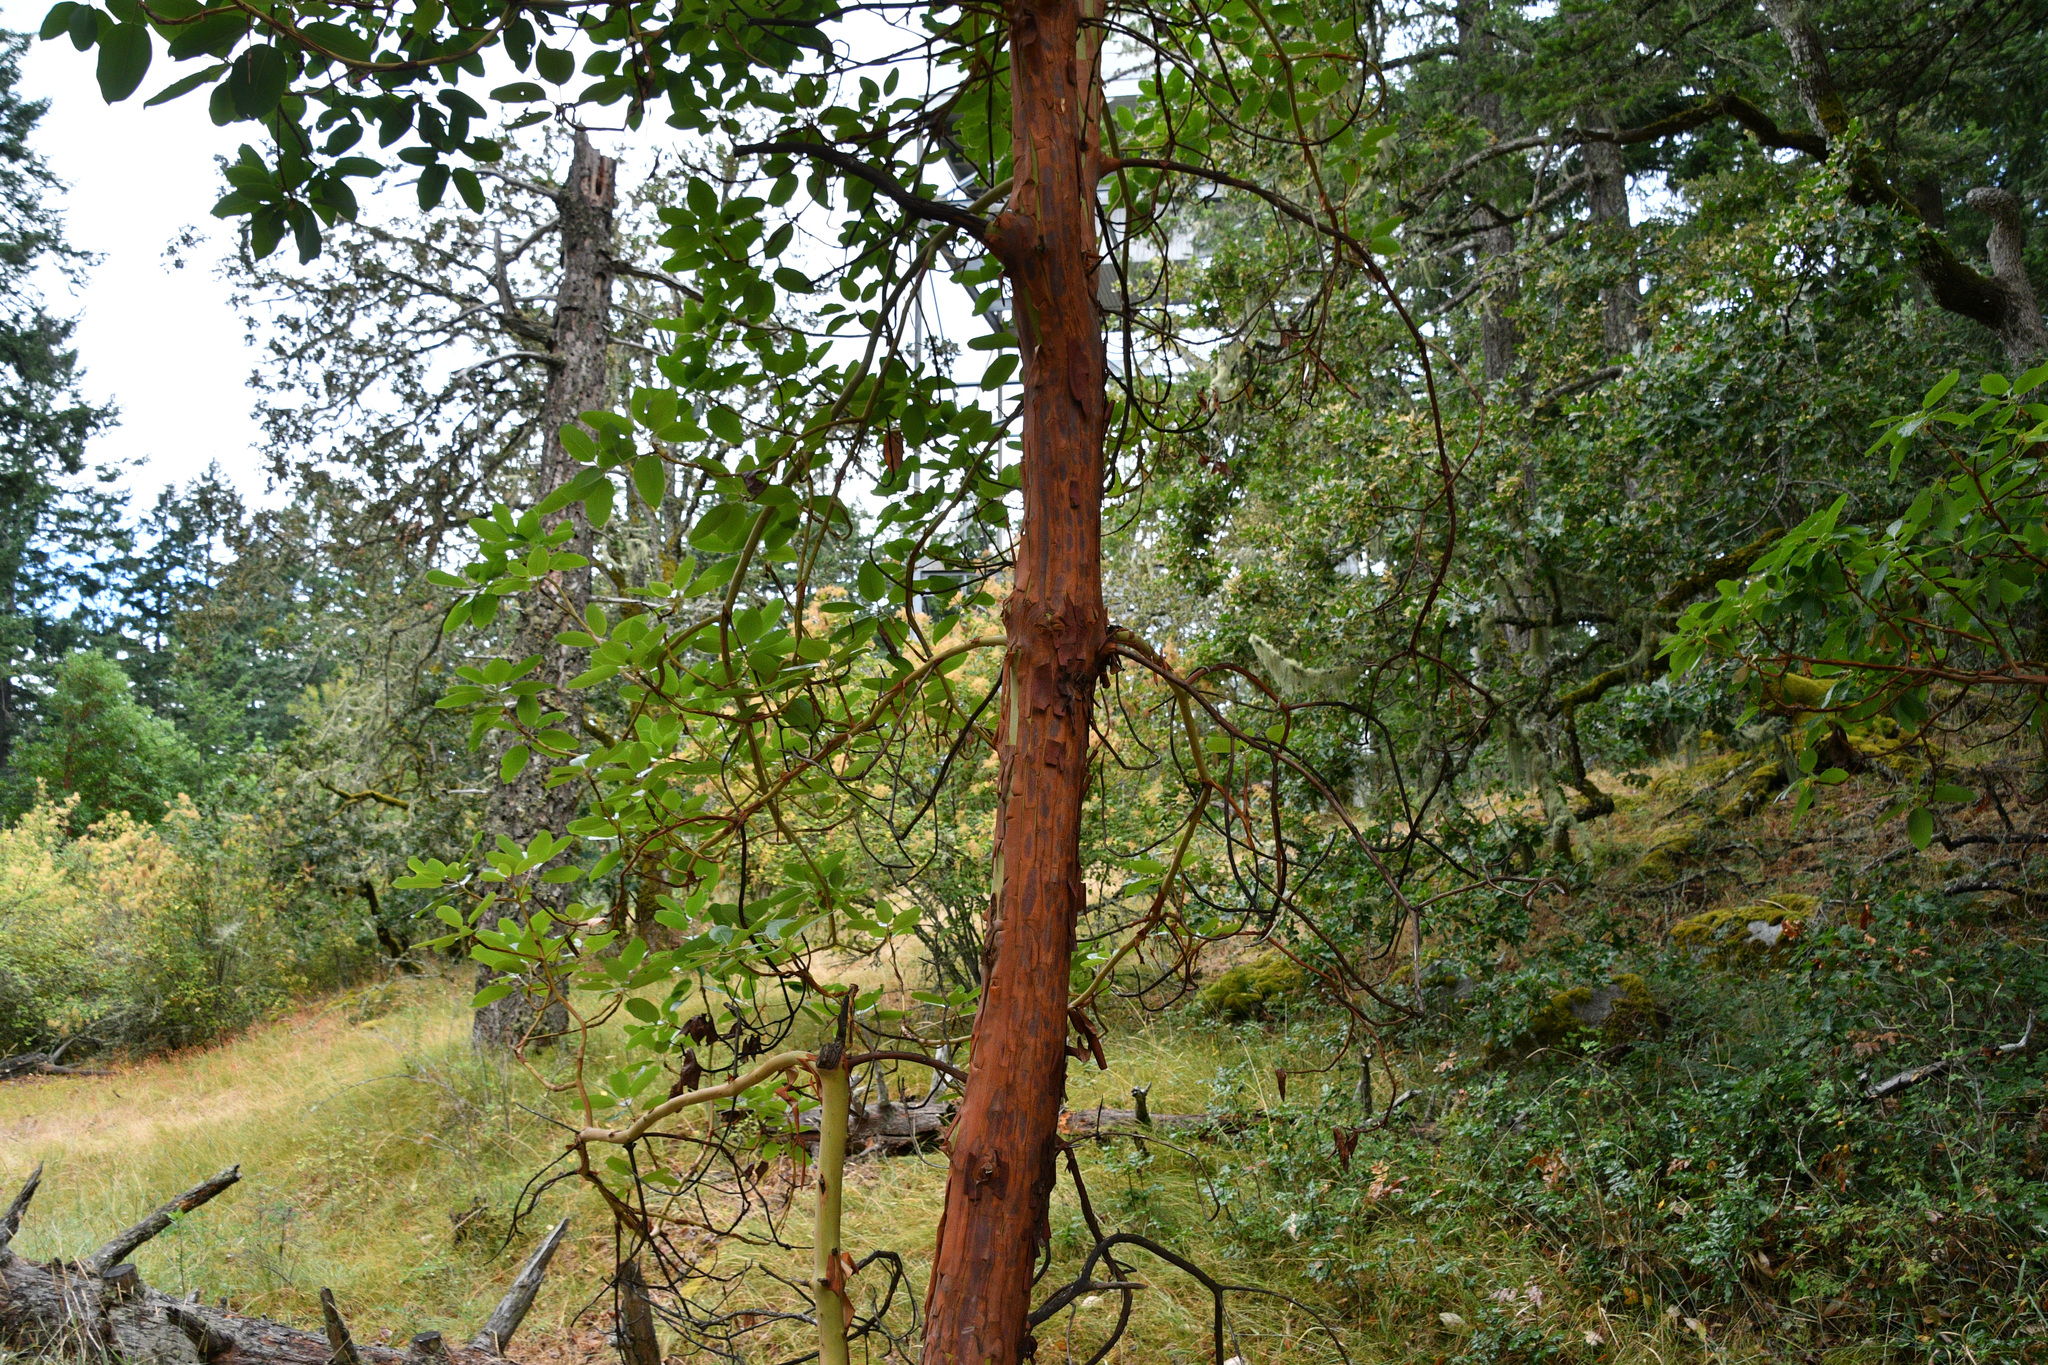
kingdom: Plantae
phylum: Tracheophyta
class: Magnoliopsida
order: Ericales
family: Ericaceae
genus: Arbutus
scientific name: Arbutus menziesii
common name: Pacific madrone
